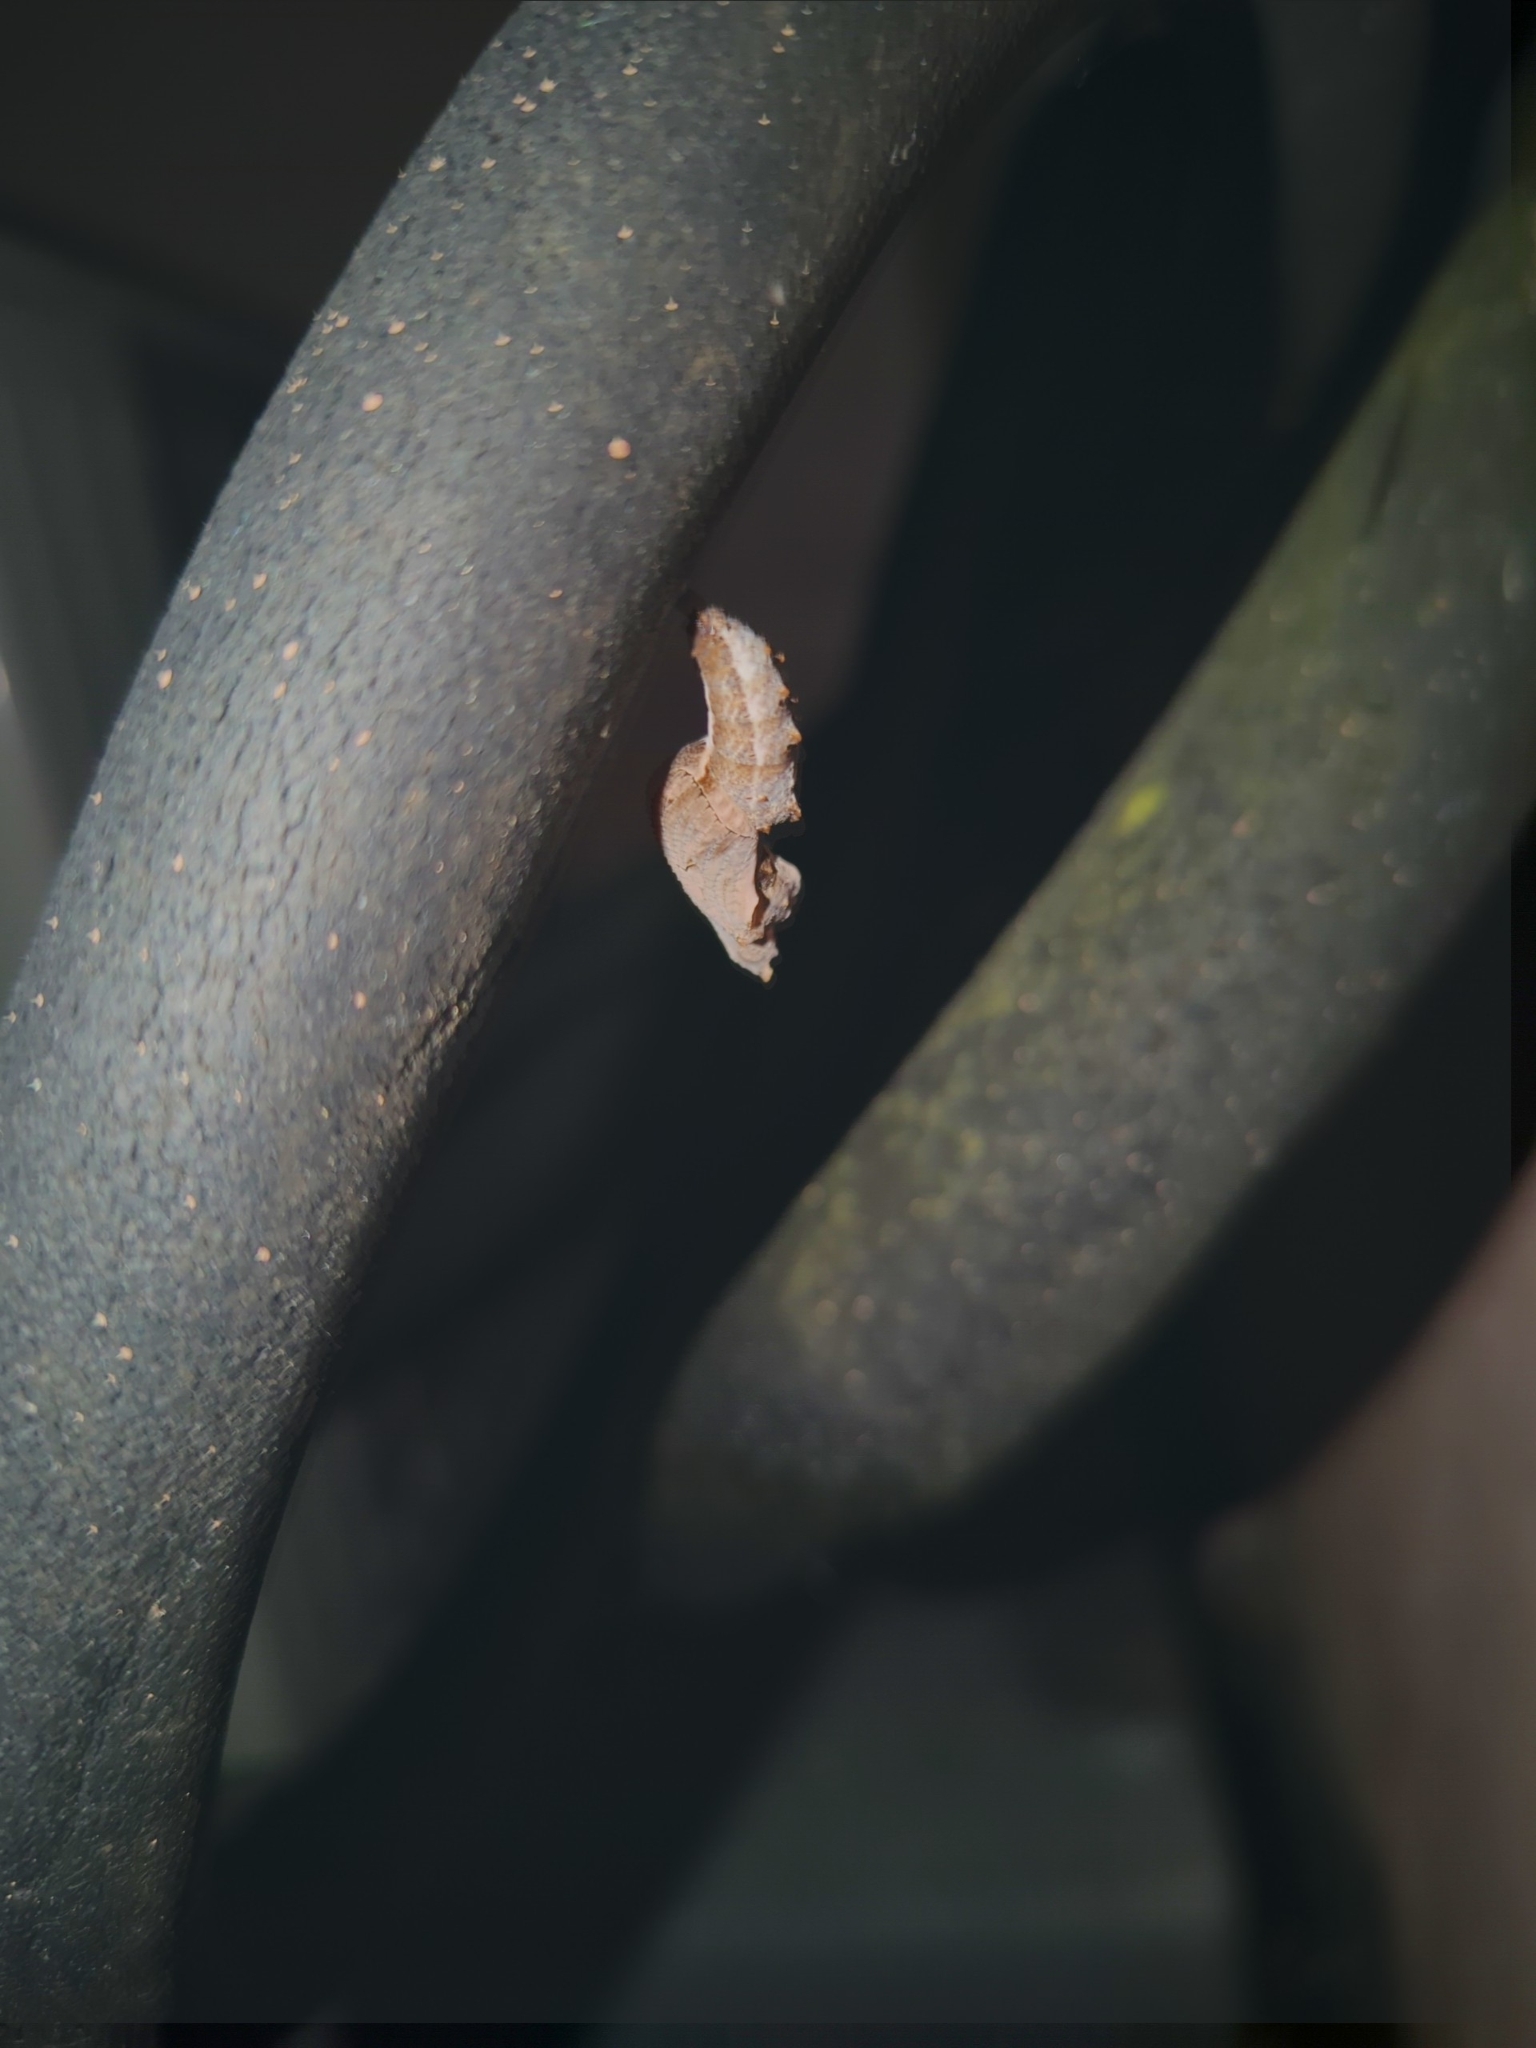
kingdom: Animalia
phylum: Arthropoda
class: Insecta
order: Lepidoptera
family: Nymphalidae
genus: Dione
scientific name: Dione vanillae
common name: Gulf fritillary
